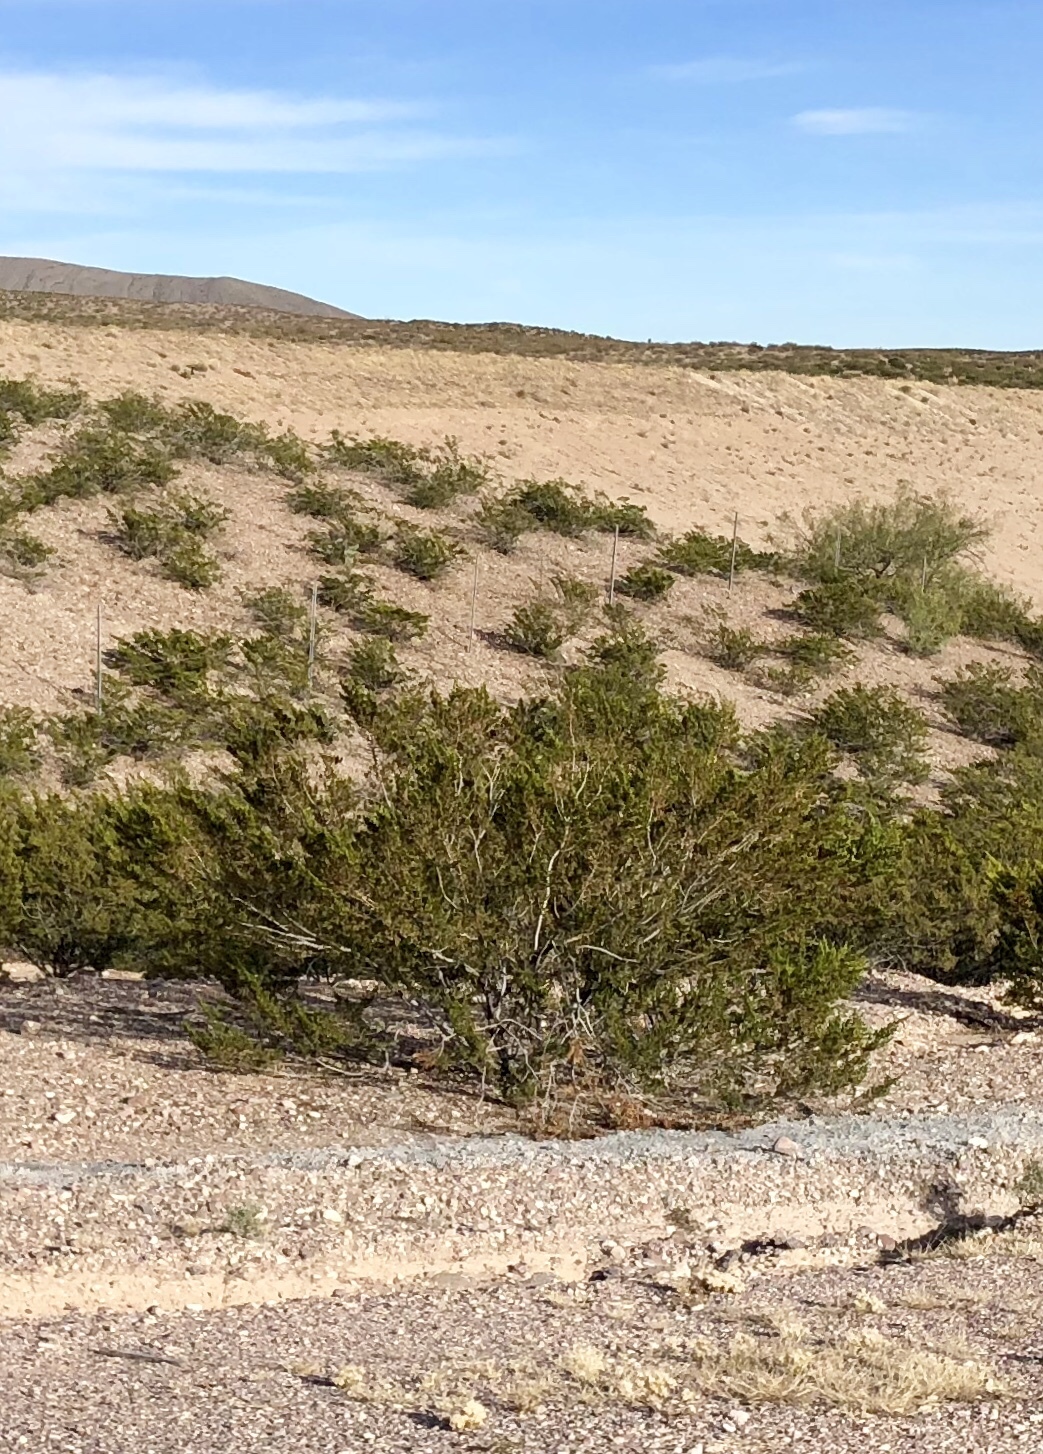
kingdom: Plantae
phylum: Tracheophyta
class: Magnoliopsida
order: Zygophyllales
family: Zygophyllaceae
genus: Larrea
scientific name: Larrea tridentata
